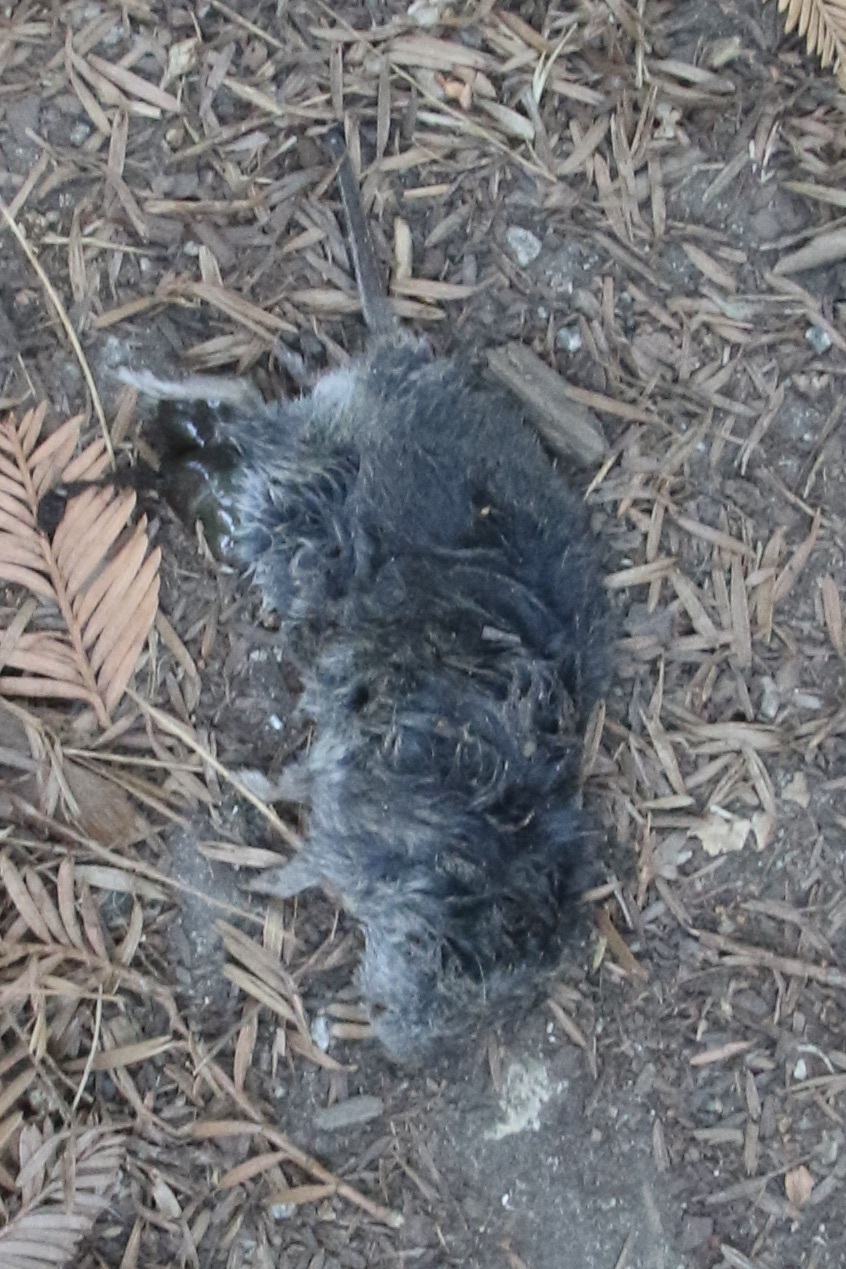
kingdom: Animalia
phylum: Chordata
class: Mammalia
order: Rodentia
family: Cricetidae
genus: Microtus
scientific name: Microtus californicus
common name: California vole
